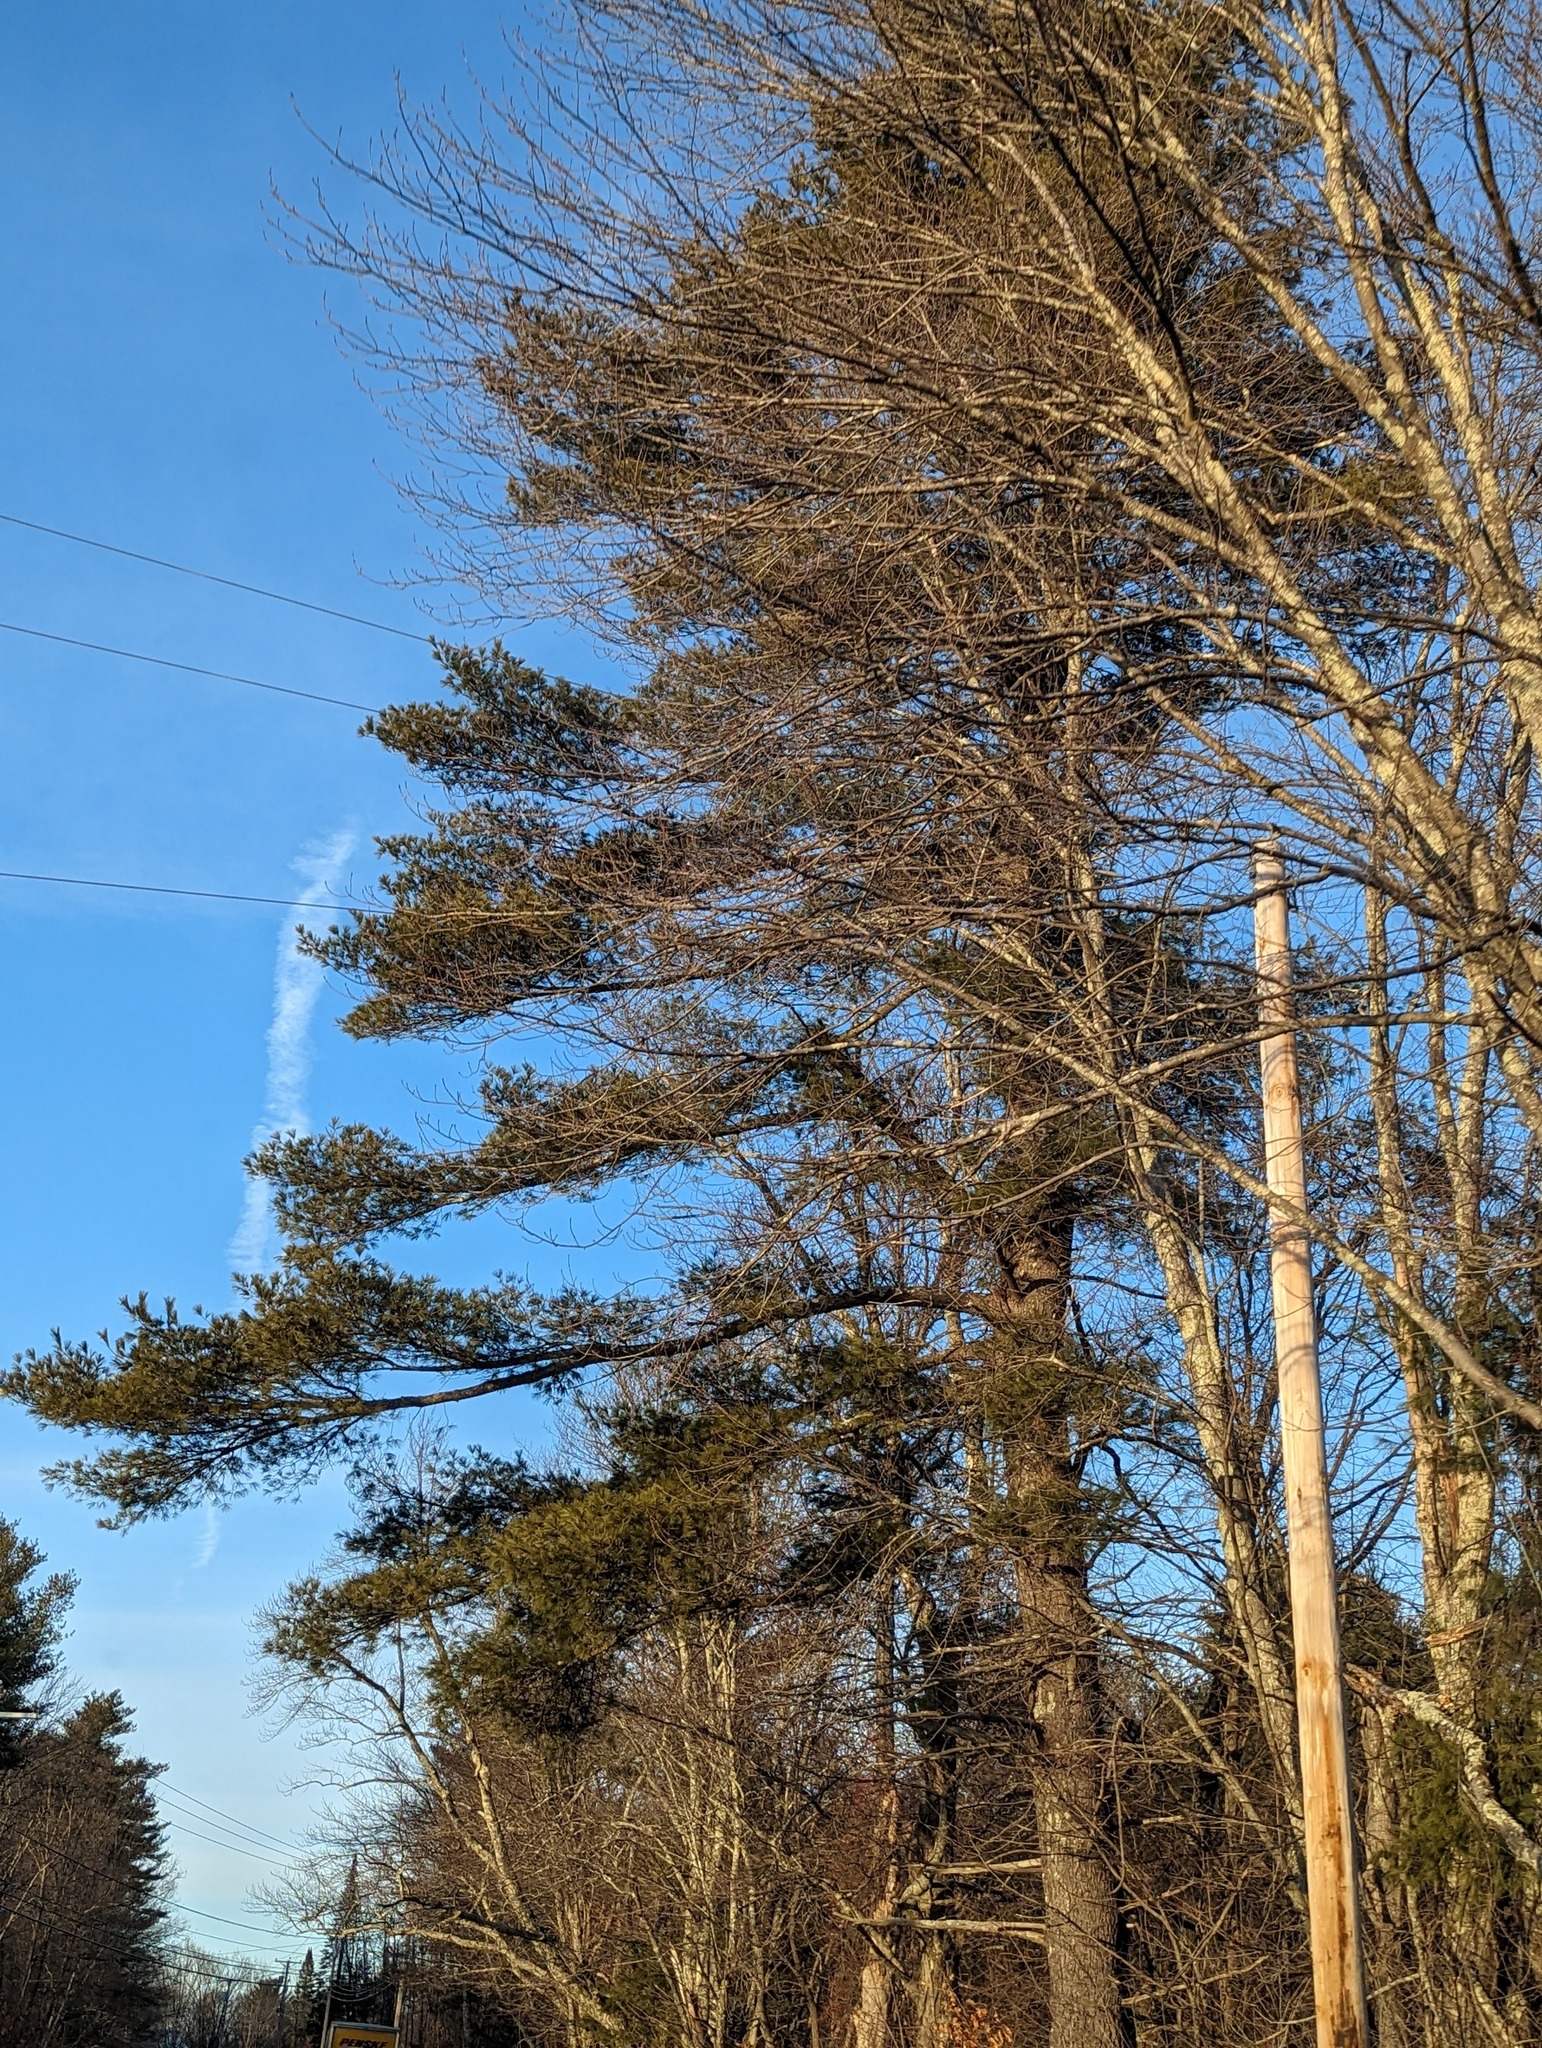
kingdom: Plantae
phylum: Tracheophyta
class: Pinopsida
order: Pinales
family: Pinaceae
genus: Pinus
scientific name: Pinus strobus
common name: Weymouth pine
